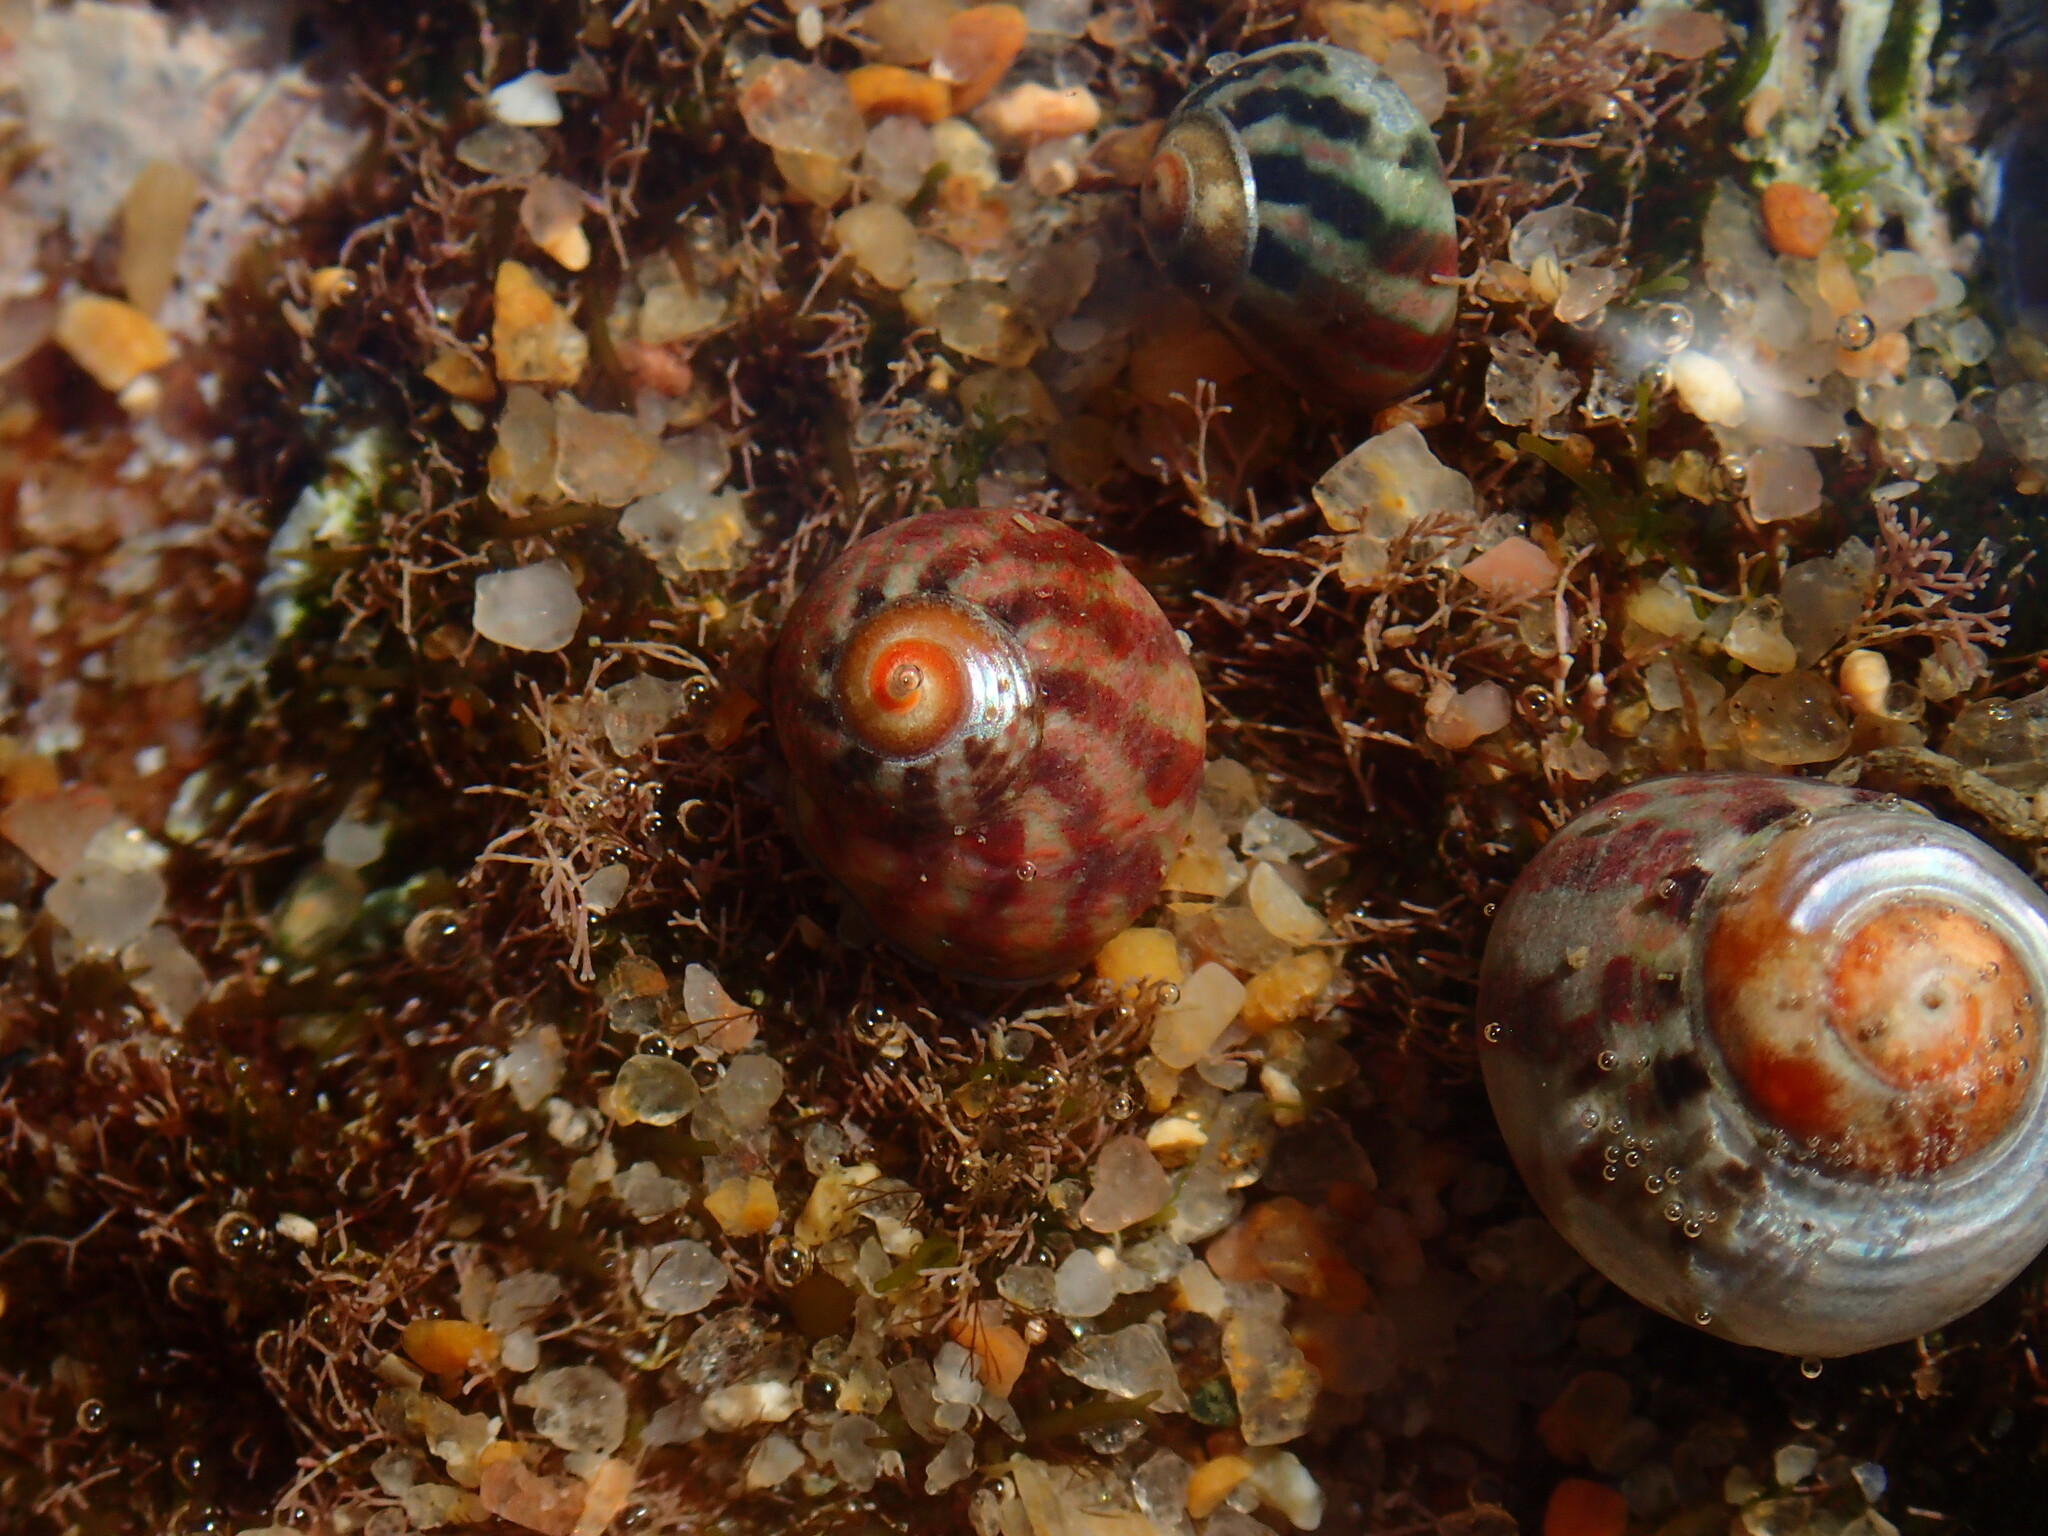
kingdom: Animalia
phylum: Mollusca
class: Gastropoda
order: Trochida
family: Trochidae
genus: Oxystele
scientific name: Oxystele tabularis
